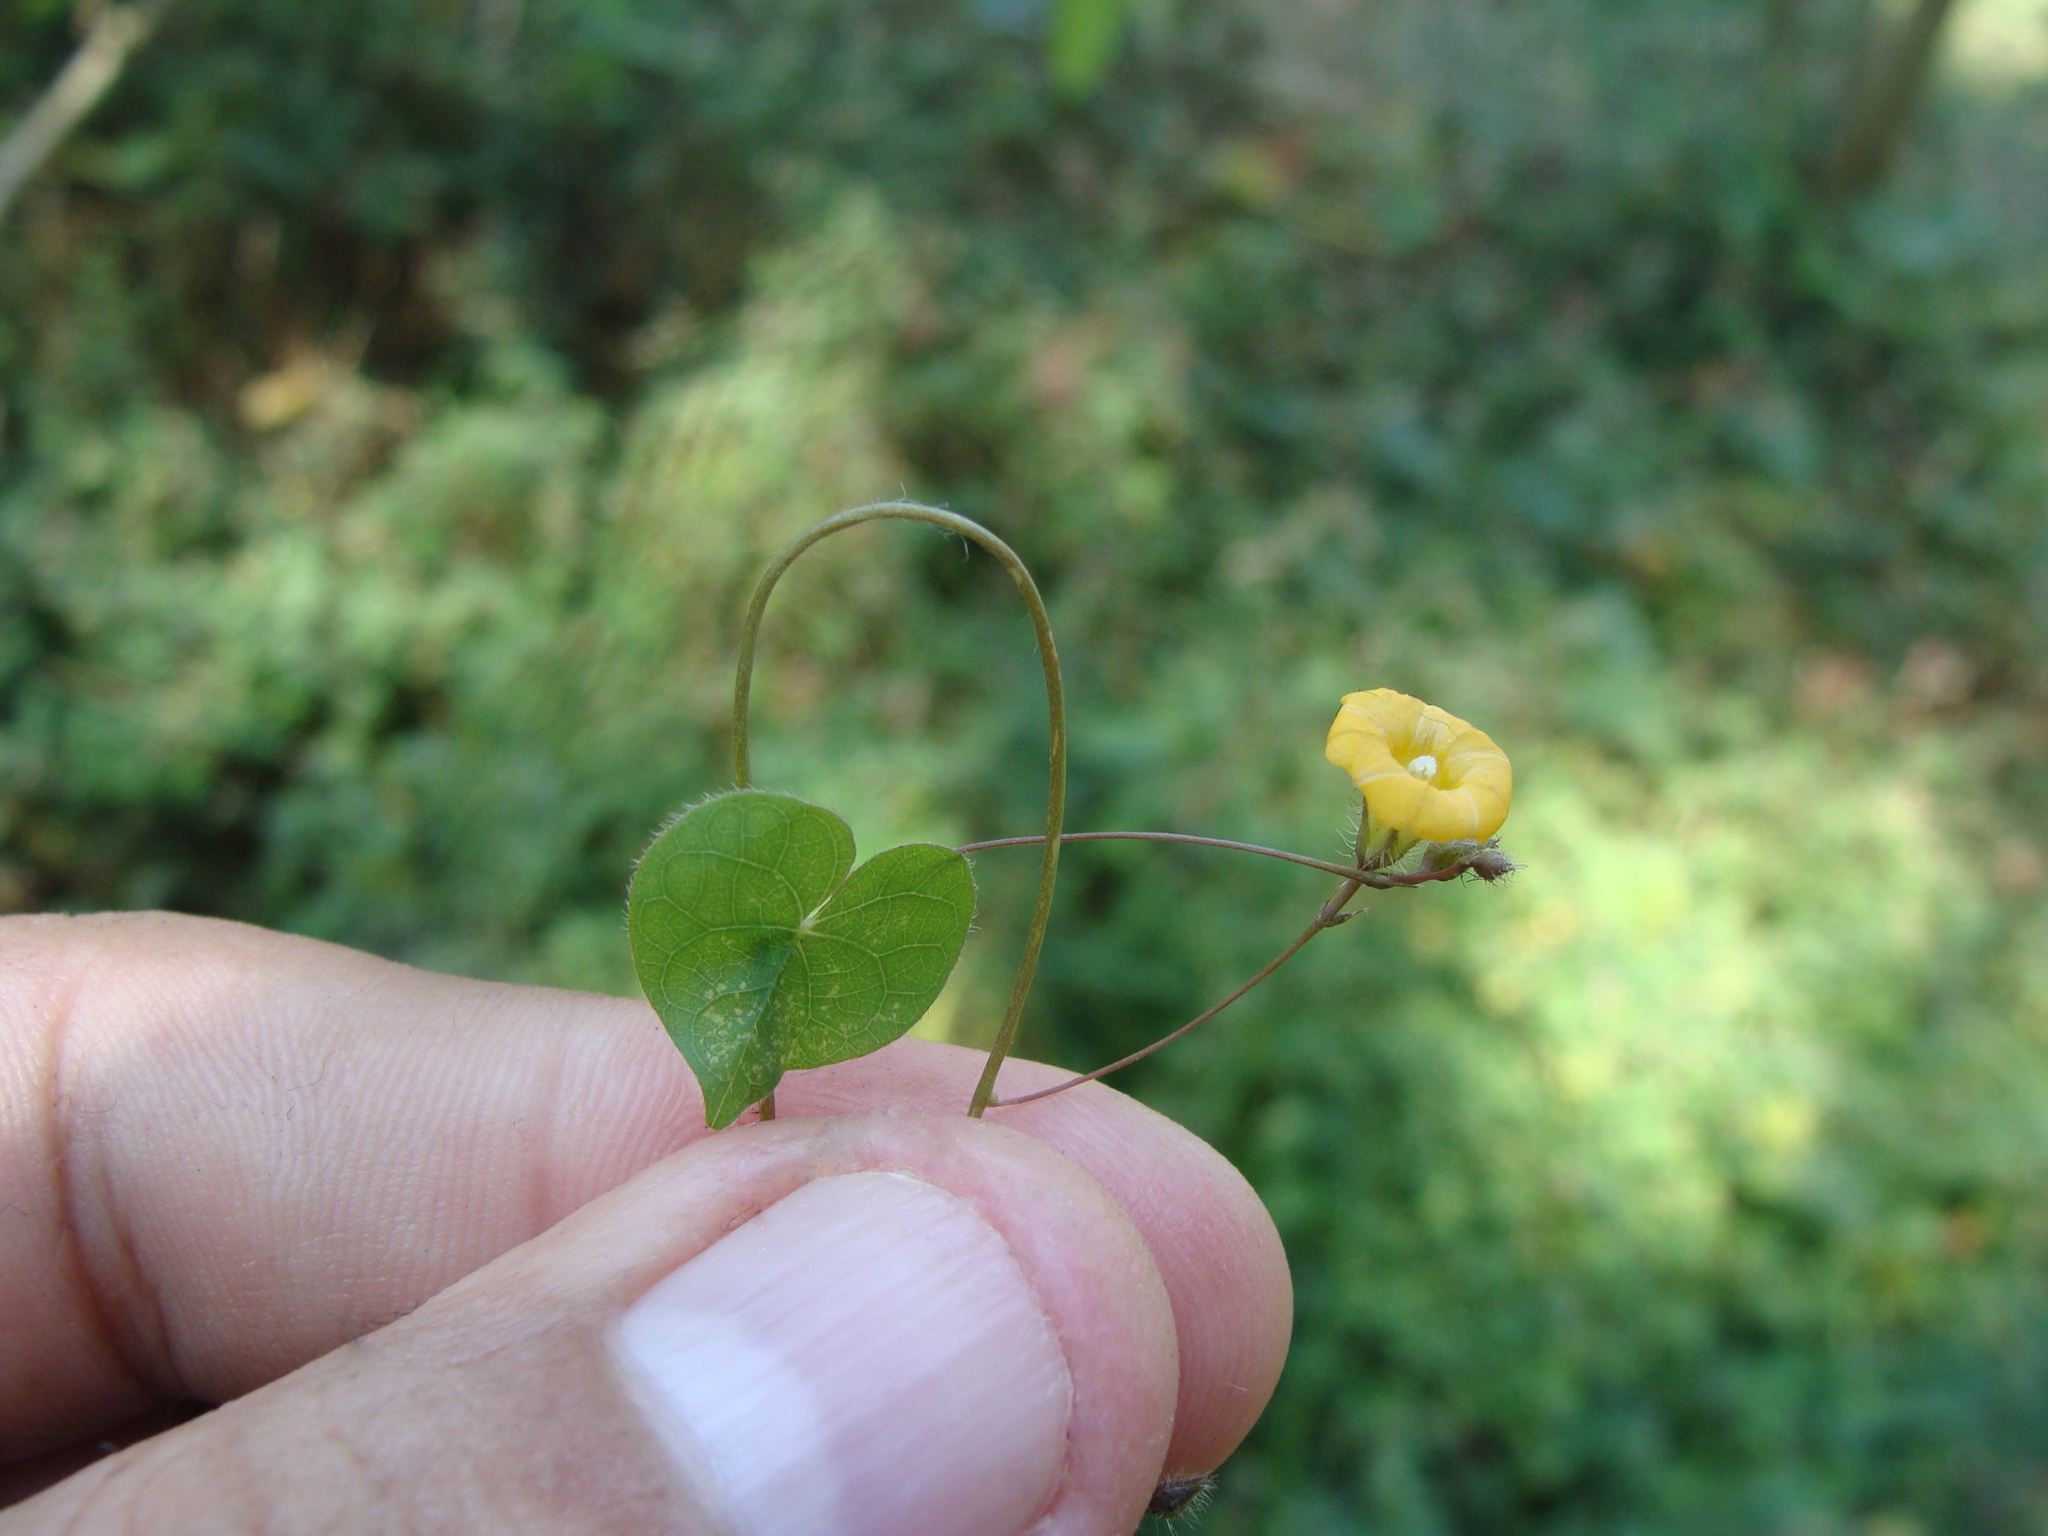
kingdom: Plantae
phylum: Tracheophyta
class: Magnoliopsida
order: Solanales
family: Convolvulaceae
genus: Ipomoea
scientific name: Ipomoea minutiflora
